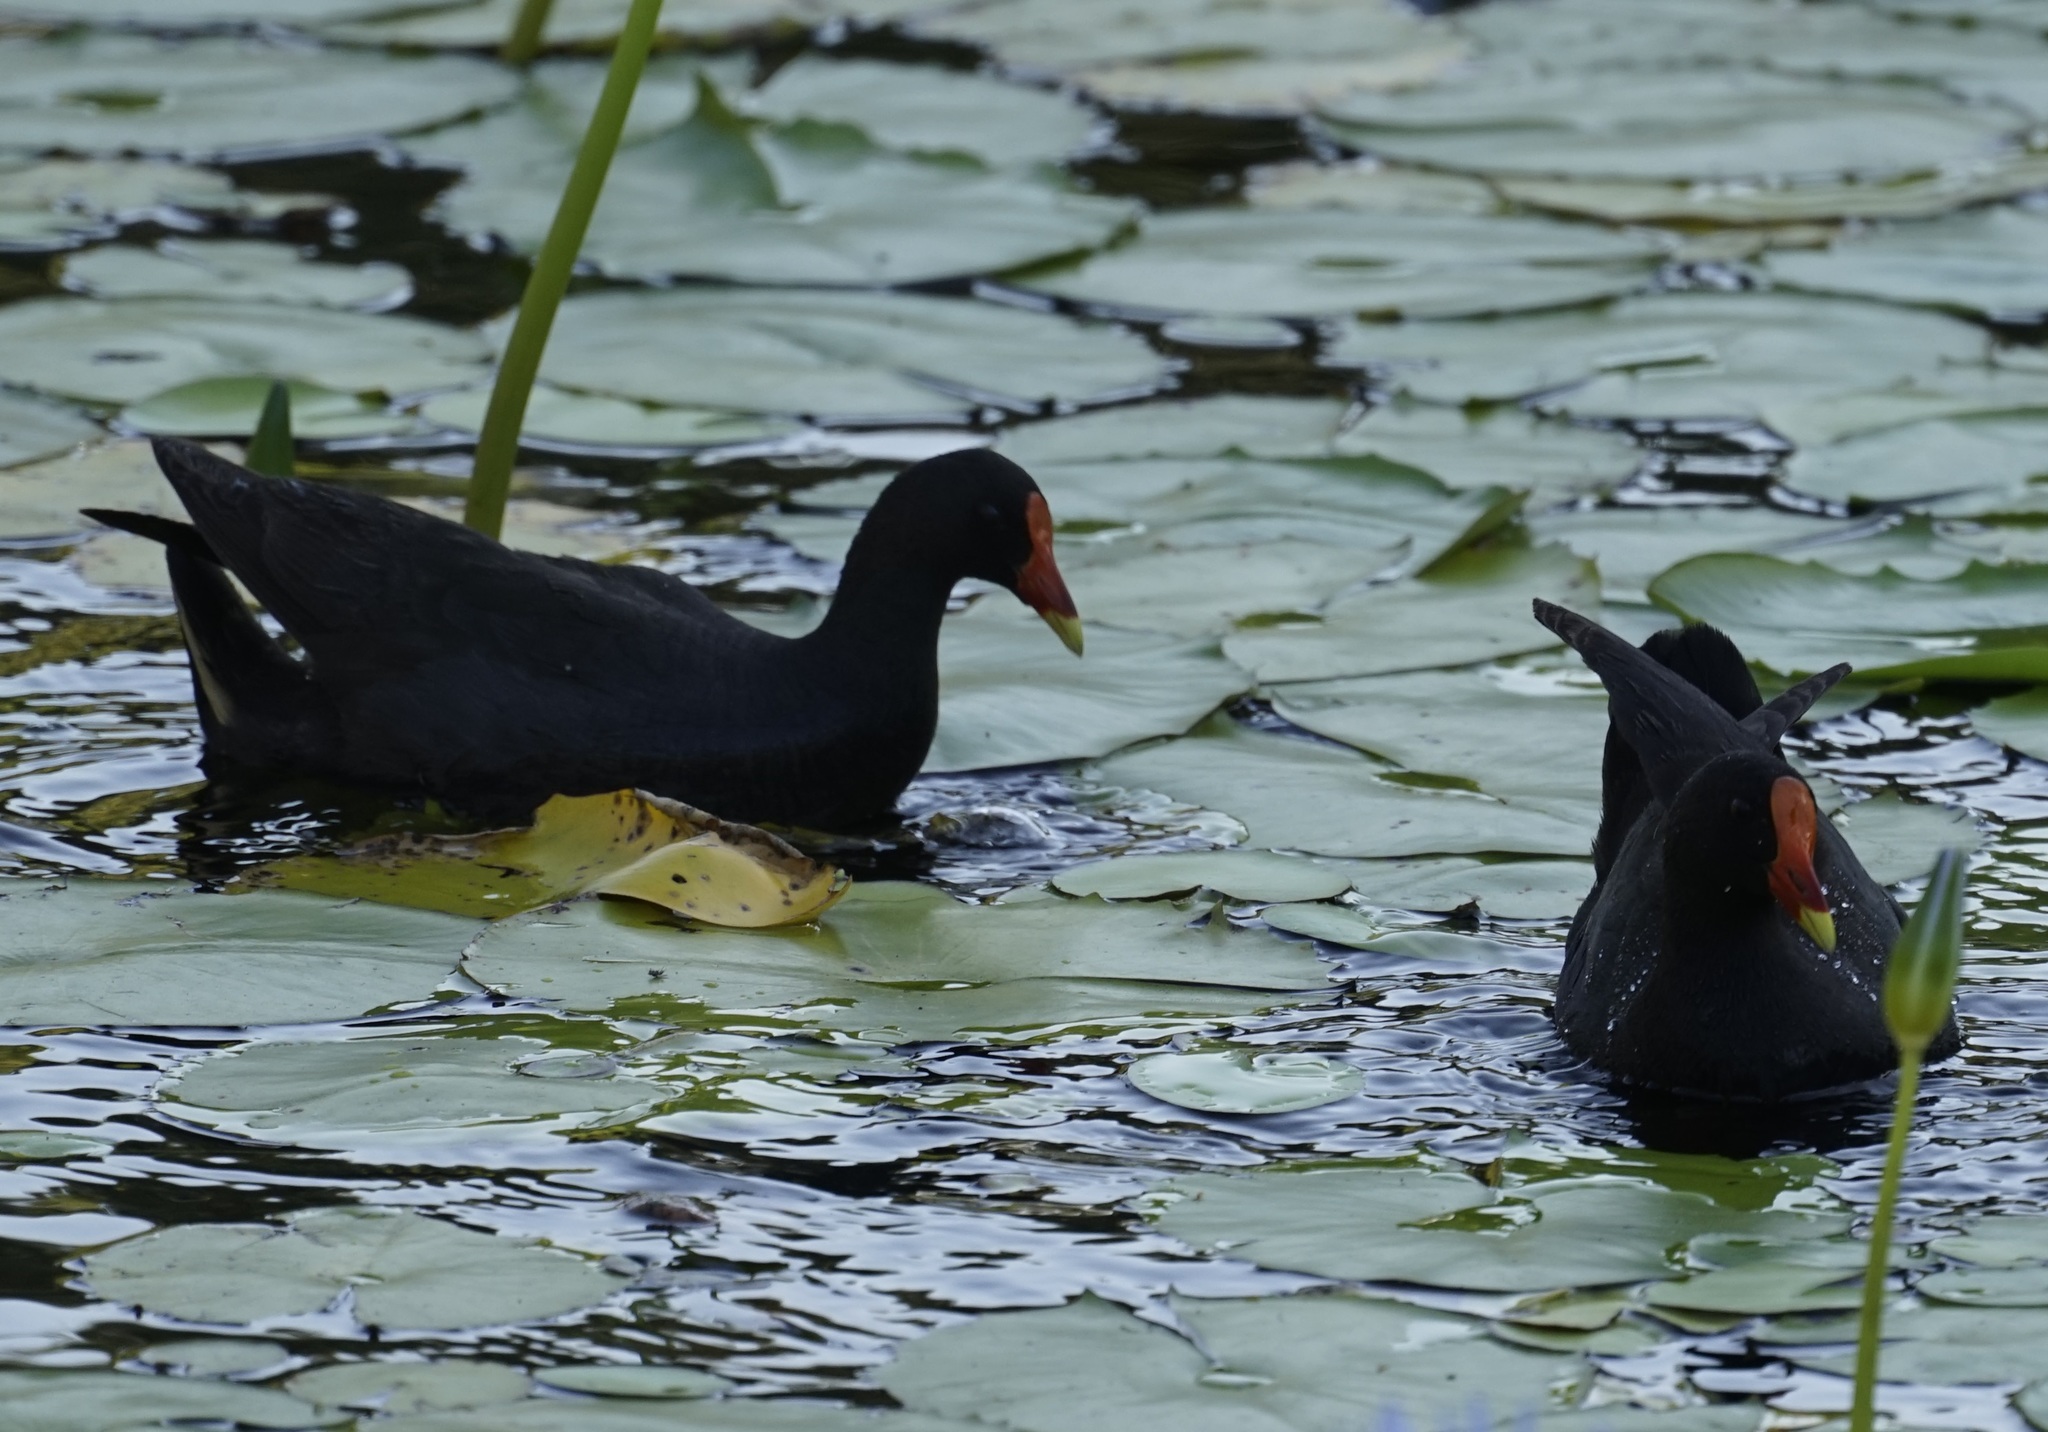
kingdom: Animalia
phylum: Chordata
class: Aves
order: Gruiformes
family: Rallidae
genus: Gallinula
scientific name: Gallinula tenebrosa
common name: Dusky moorhen
